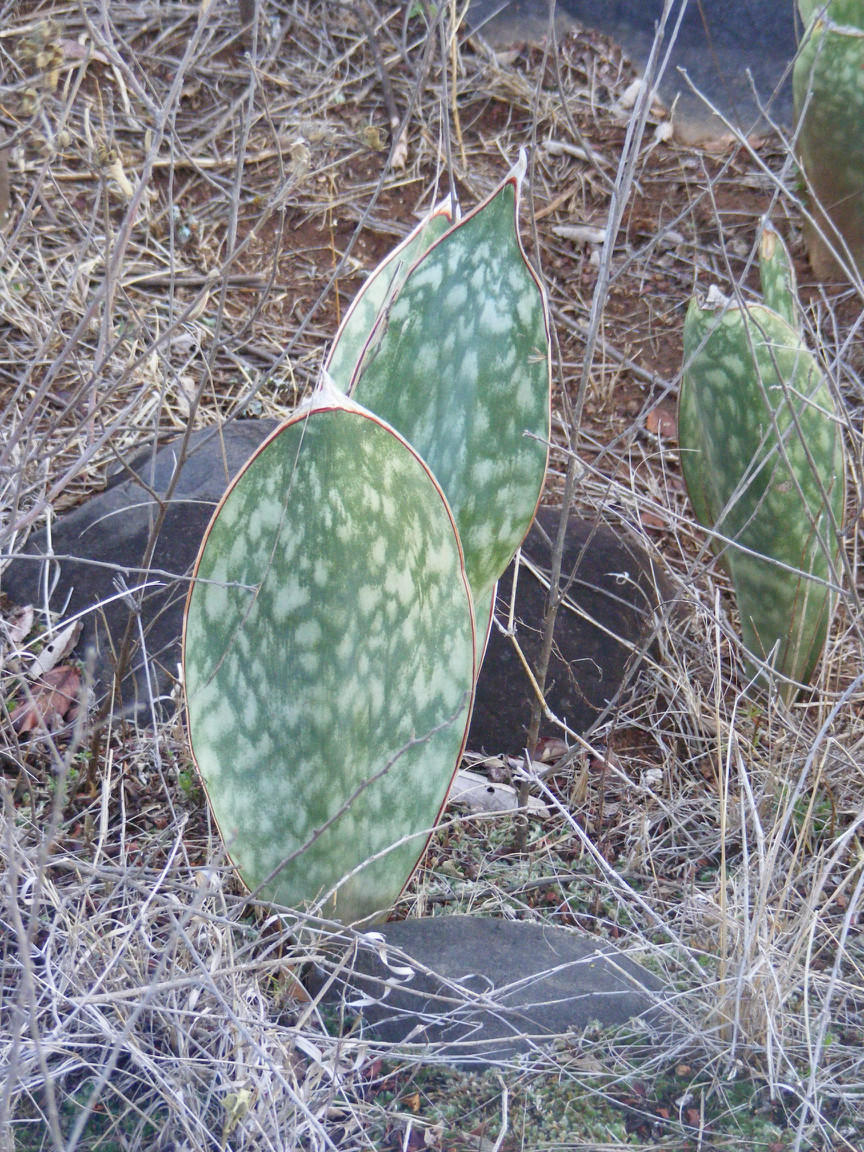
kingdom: Plantae
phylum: Tracheophyta
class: Liliopsida
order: Asparagales
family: Asparagaceae
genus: Dracaena
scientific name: Dracaena hyacinthoides
